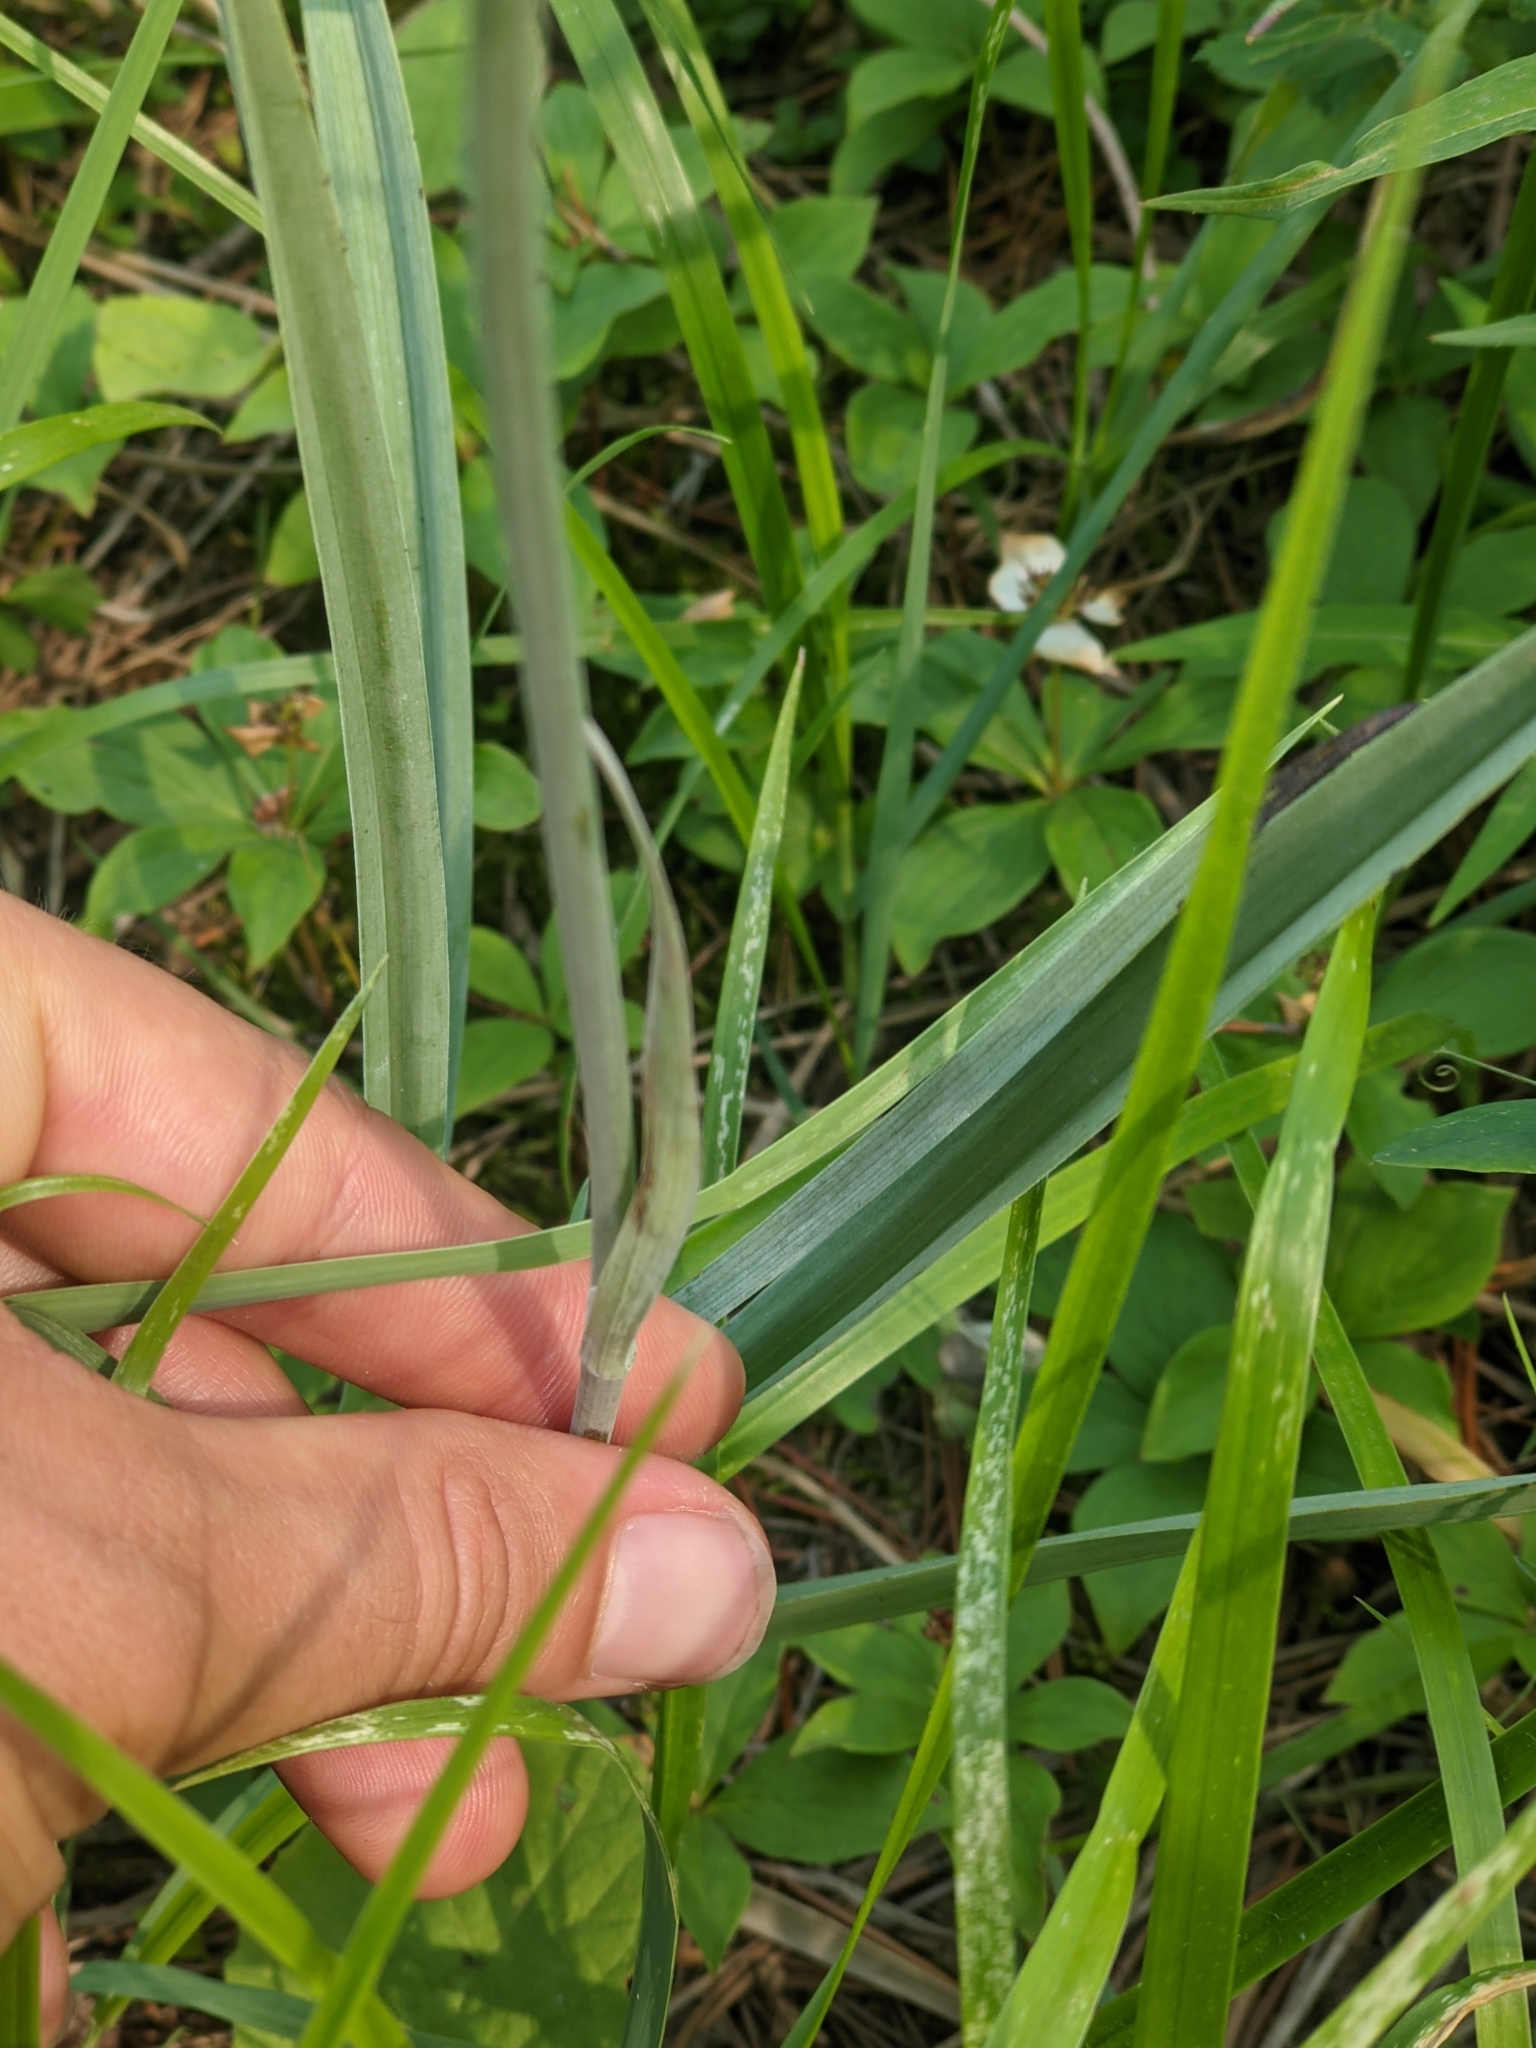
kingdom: Plantae
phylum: Tracheophyta
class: Liliopsida
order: Liliales
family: Melanthiaceae
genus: Anticlea
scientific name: Anticlea elegans
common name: Mountain death camas
